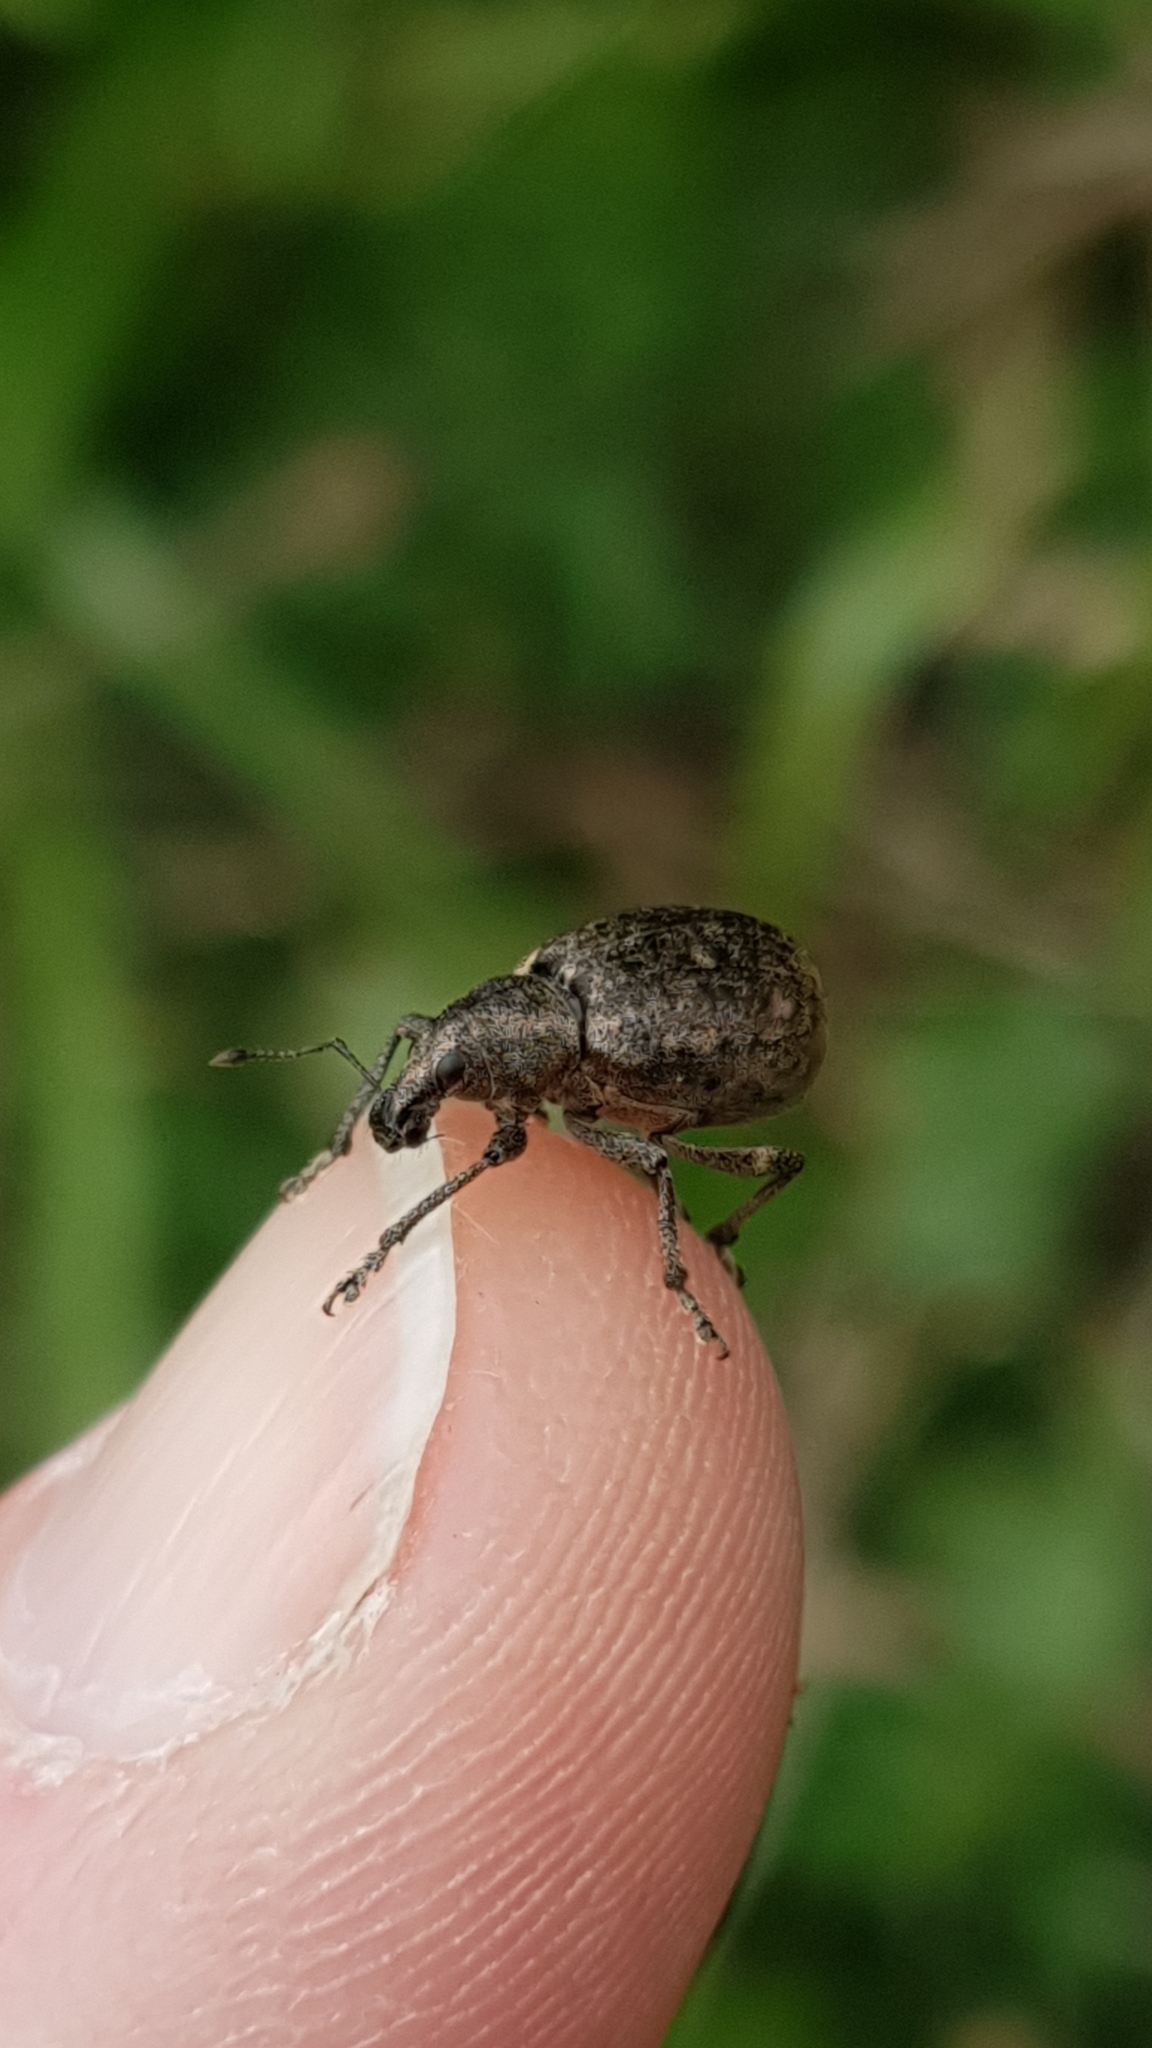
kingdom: Animalia
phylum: Arthropoda
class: Insecta
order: Coleoptera
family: Curculionidae
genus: Liophloeus
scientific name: Liophloeus tessulatus
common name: Weevil
